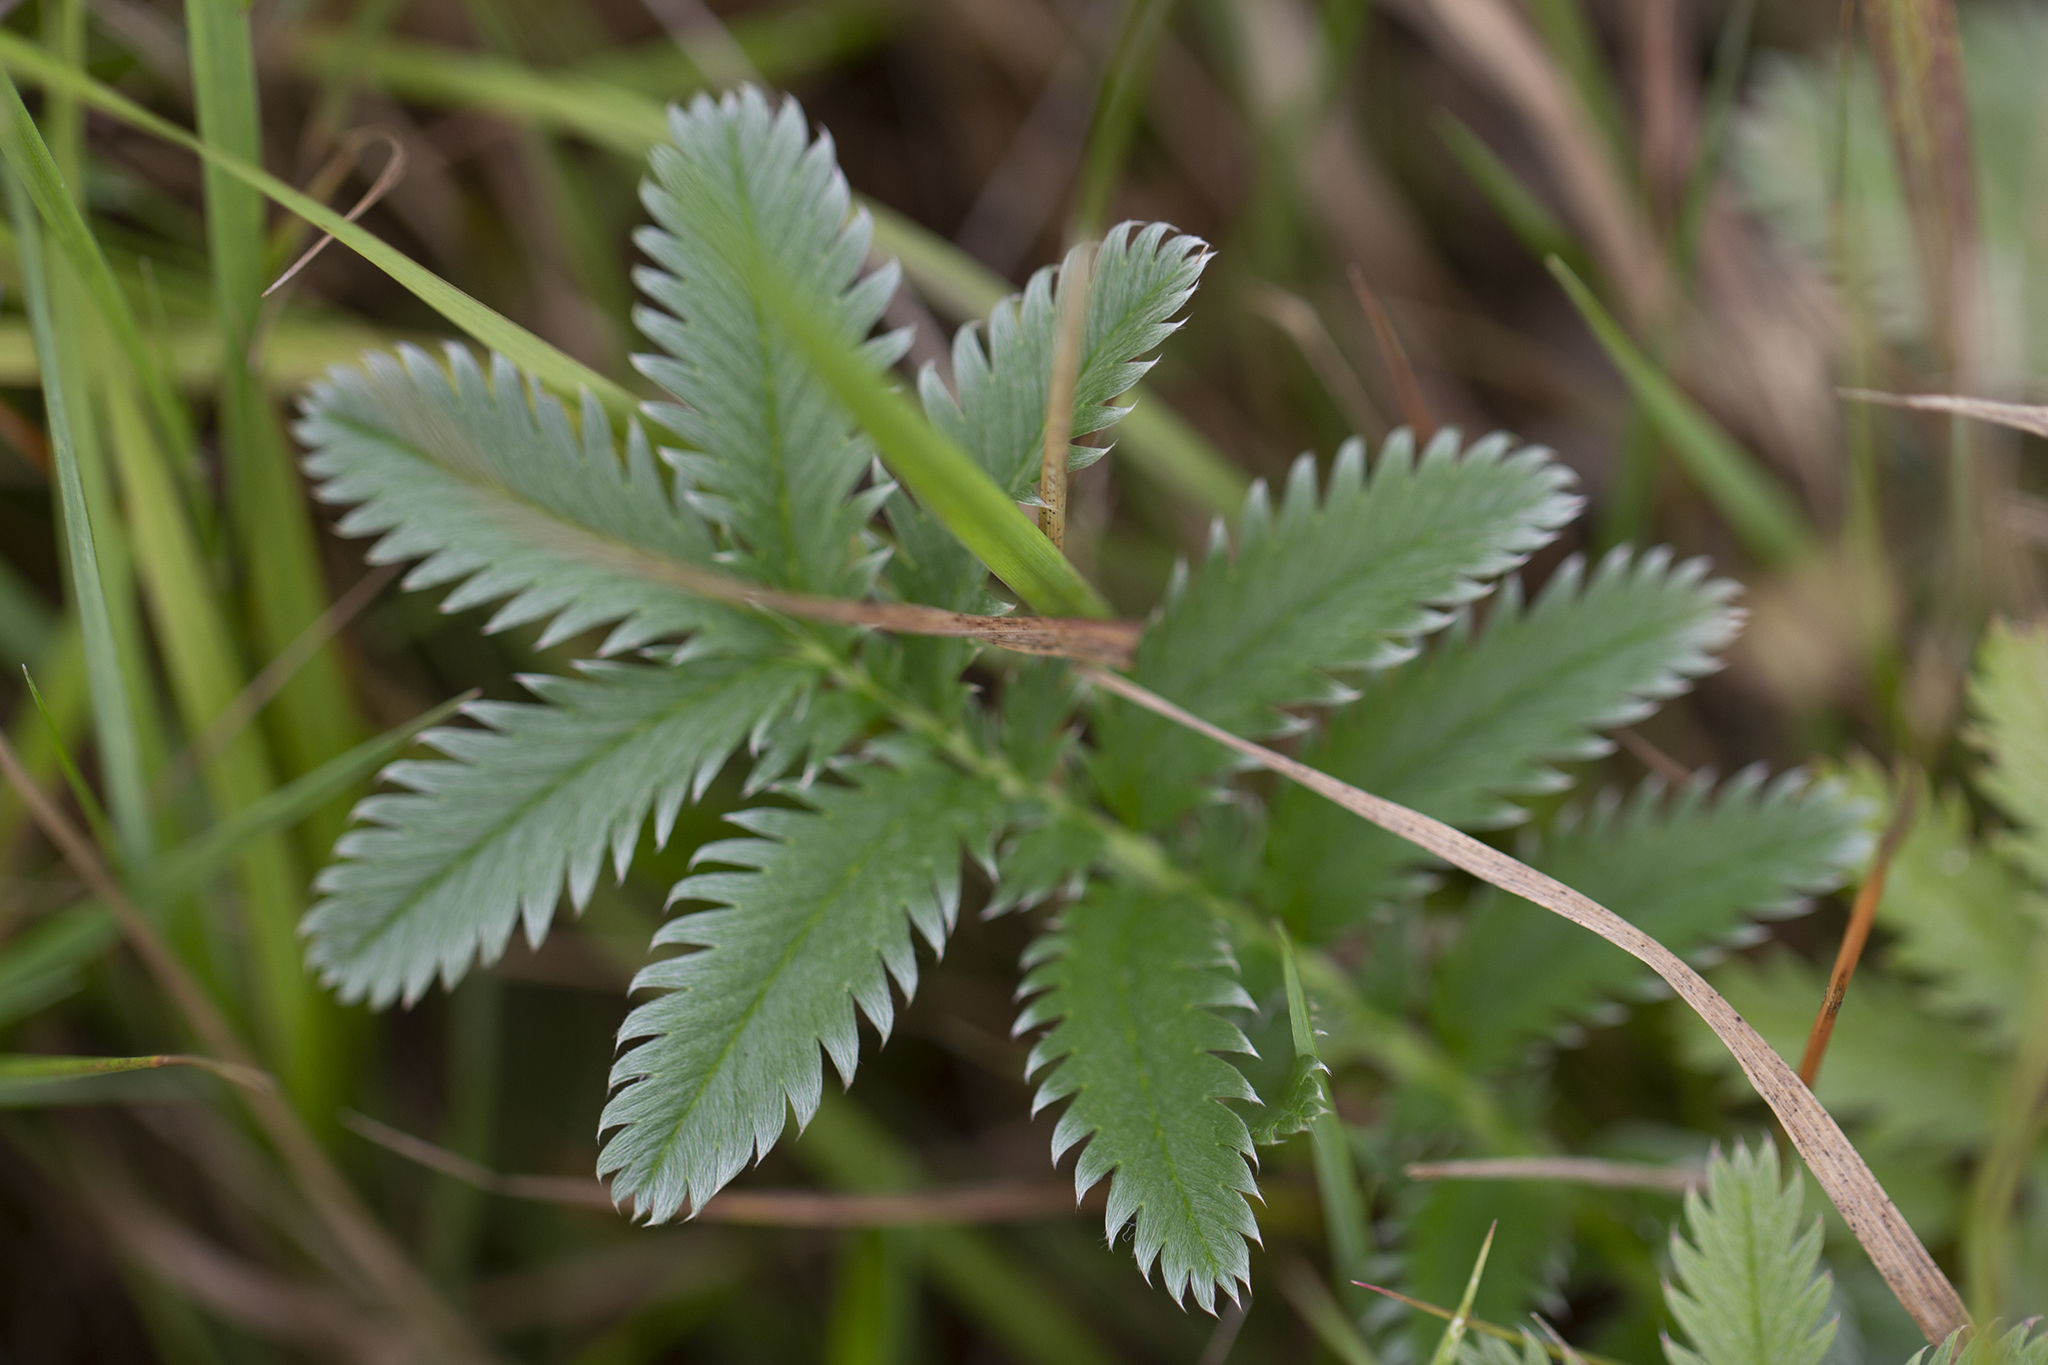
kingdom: Plantae
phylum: Tracheophyta
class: Magnoliopsida
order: Rosales
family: Rosaceae
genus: Argentina
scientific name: Argentina anserina
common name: Common silverweed
